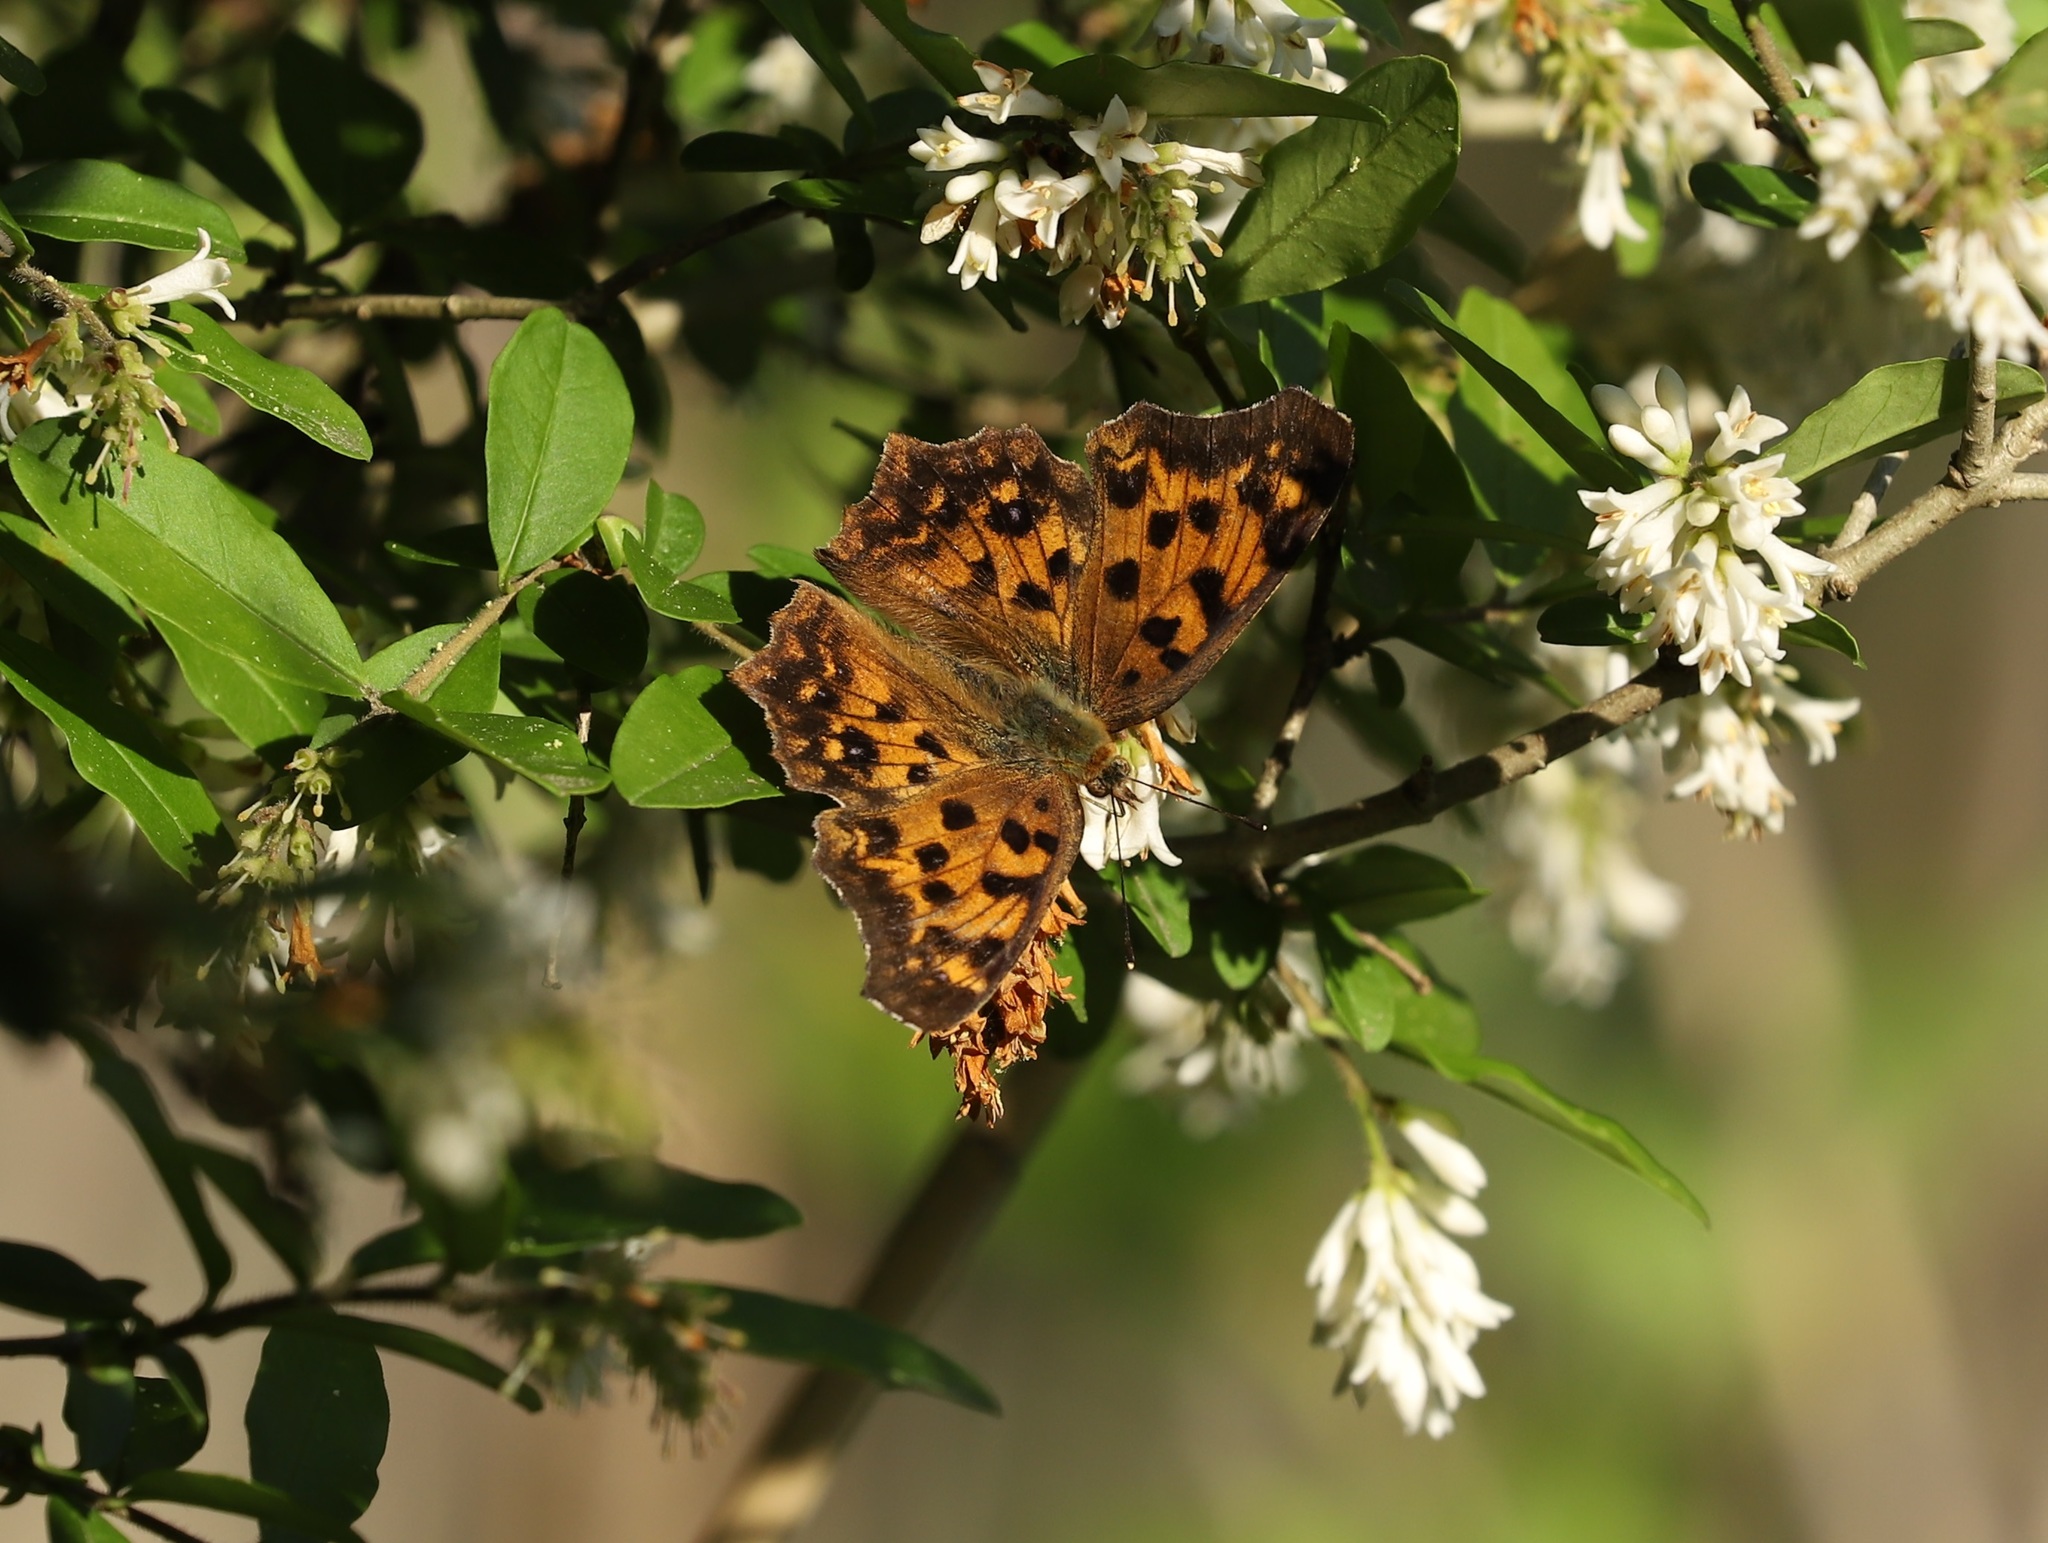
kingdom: Animalia
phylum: Arthropoda
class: Insecta
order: Lepidoptera
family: Nymphalidae
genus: Polygonia
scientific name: Polygonia c-aureum
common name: Asian comma
